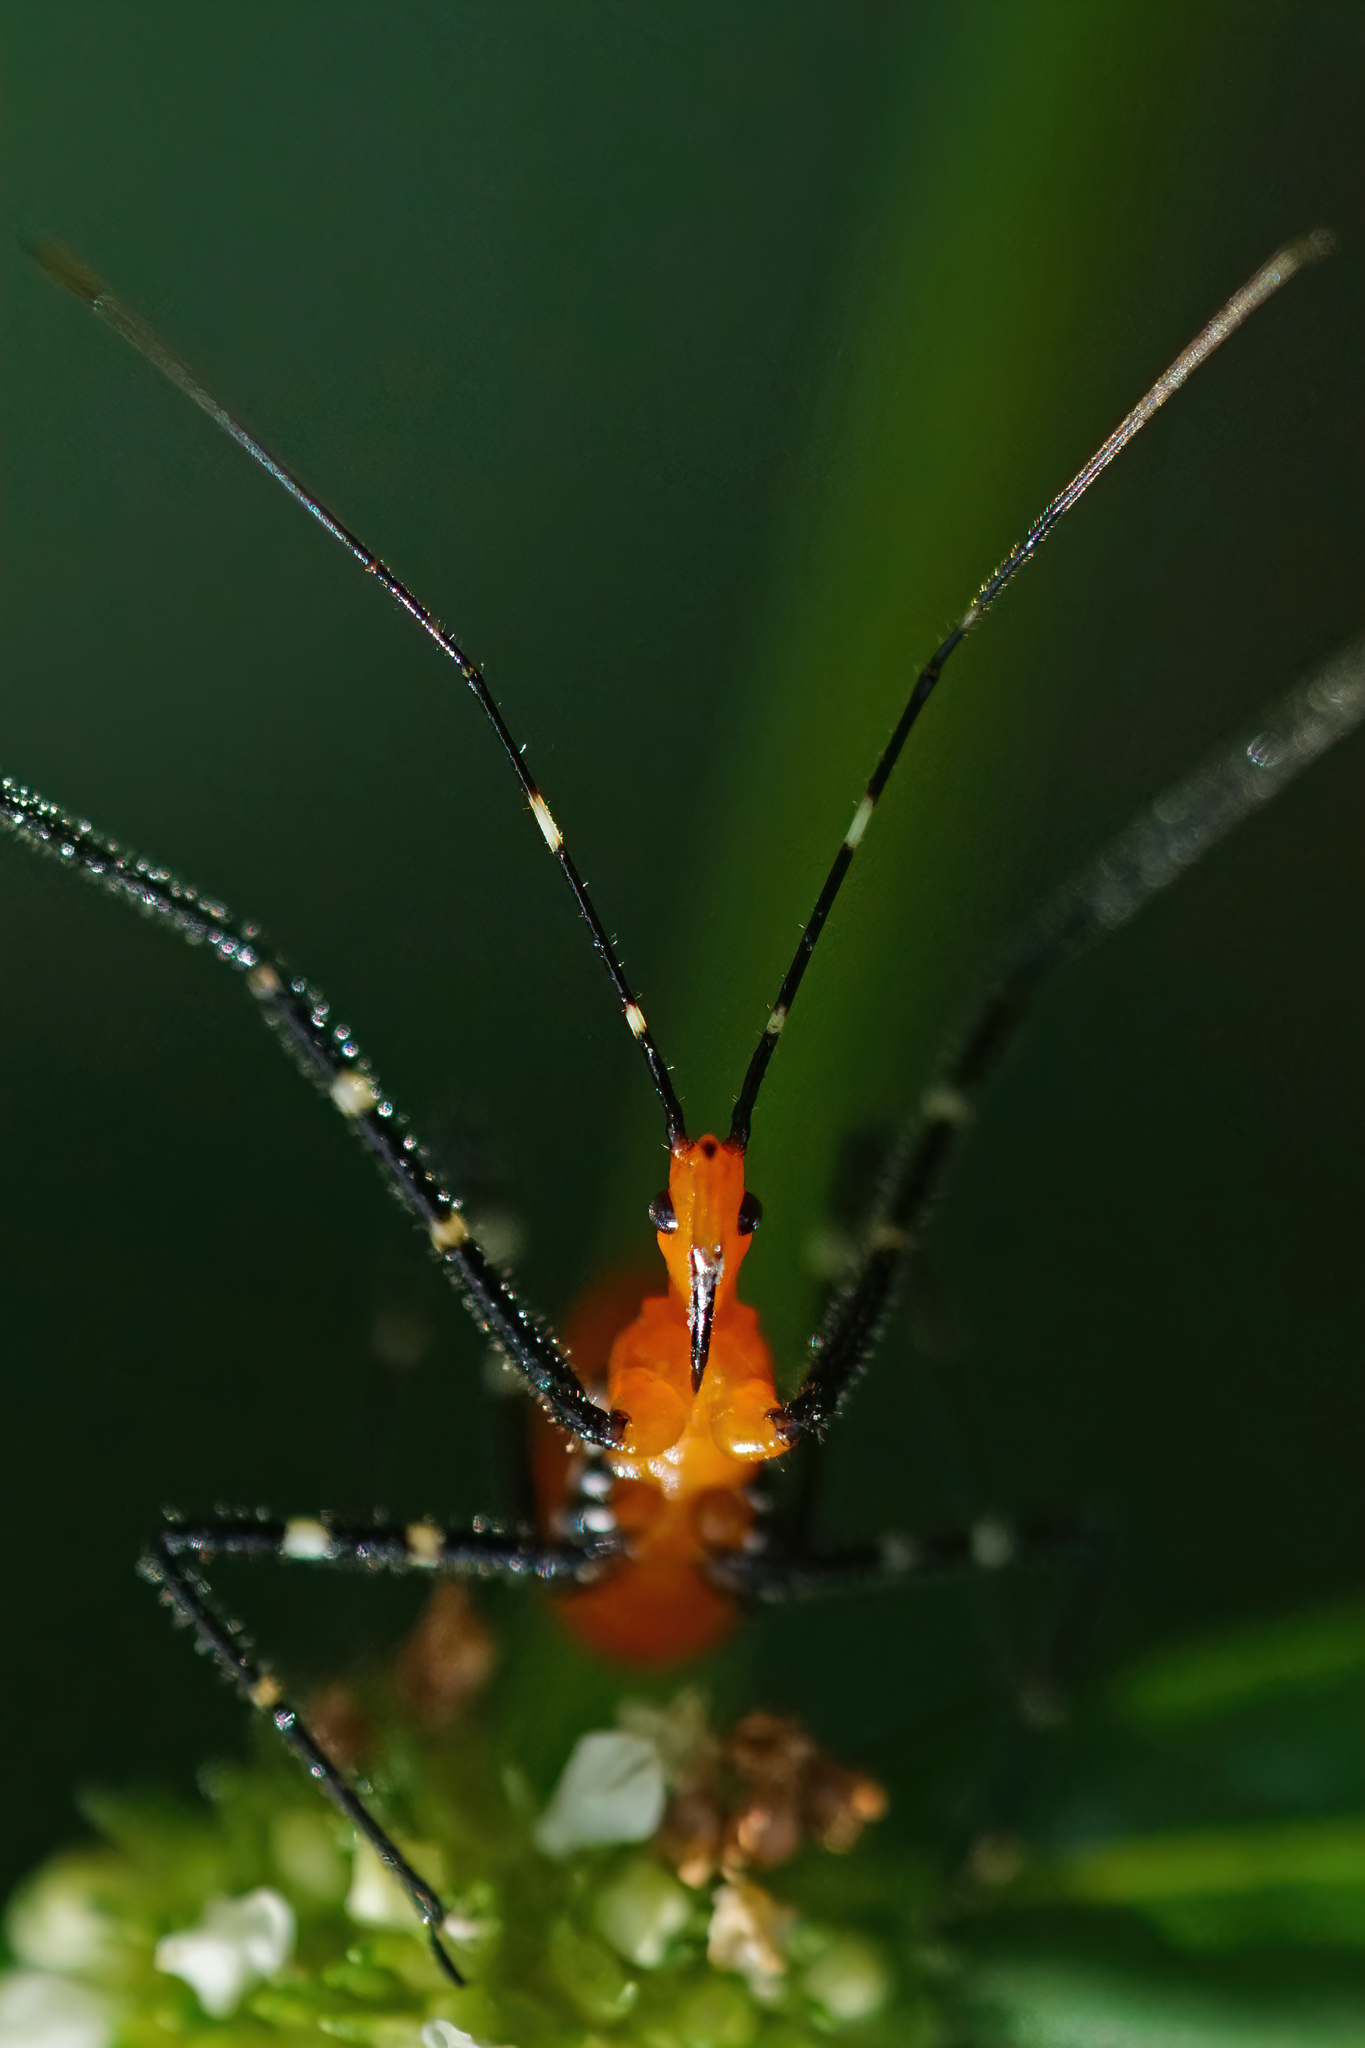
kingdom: Animalia
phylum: Arthropoda
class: Insecta
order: Hemiptera
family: Reduviidae
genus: Zelus
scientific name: Zelus longipes
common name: Milkweed assassin bug
